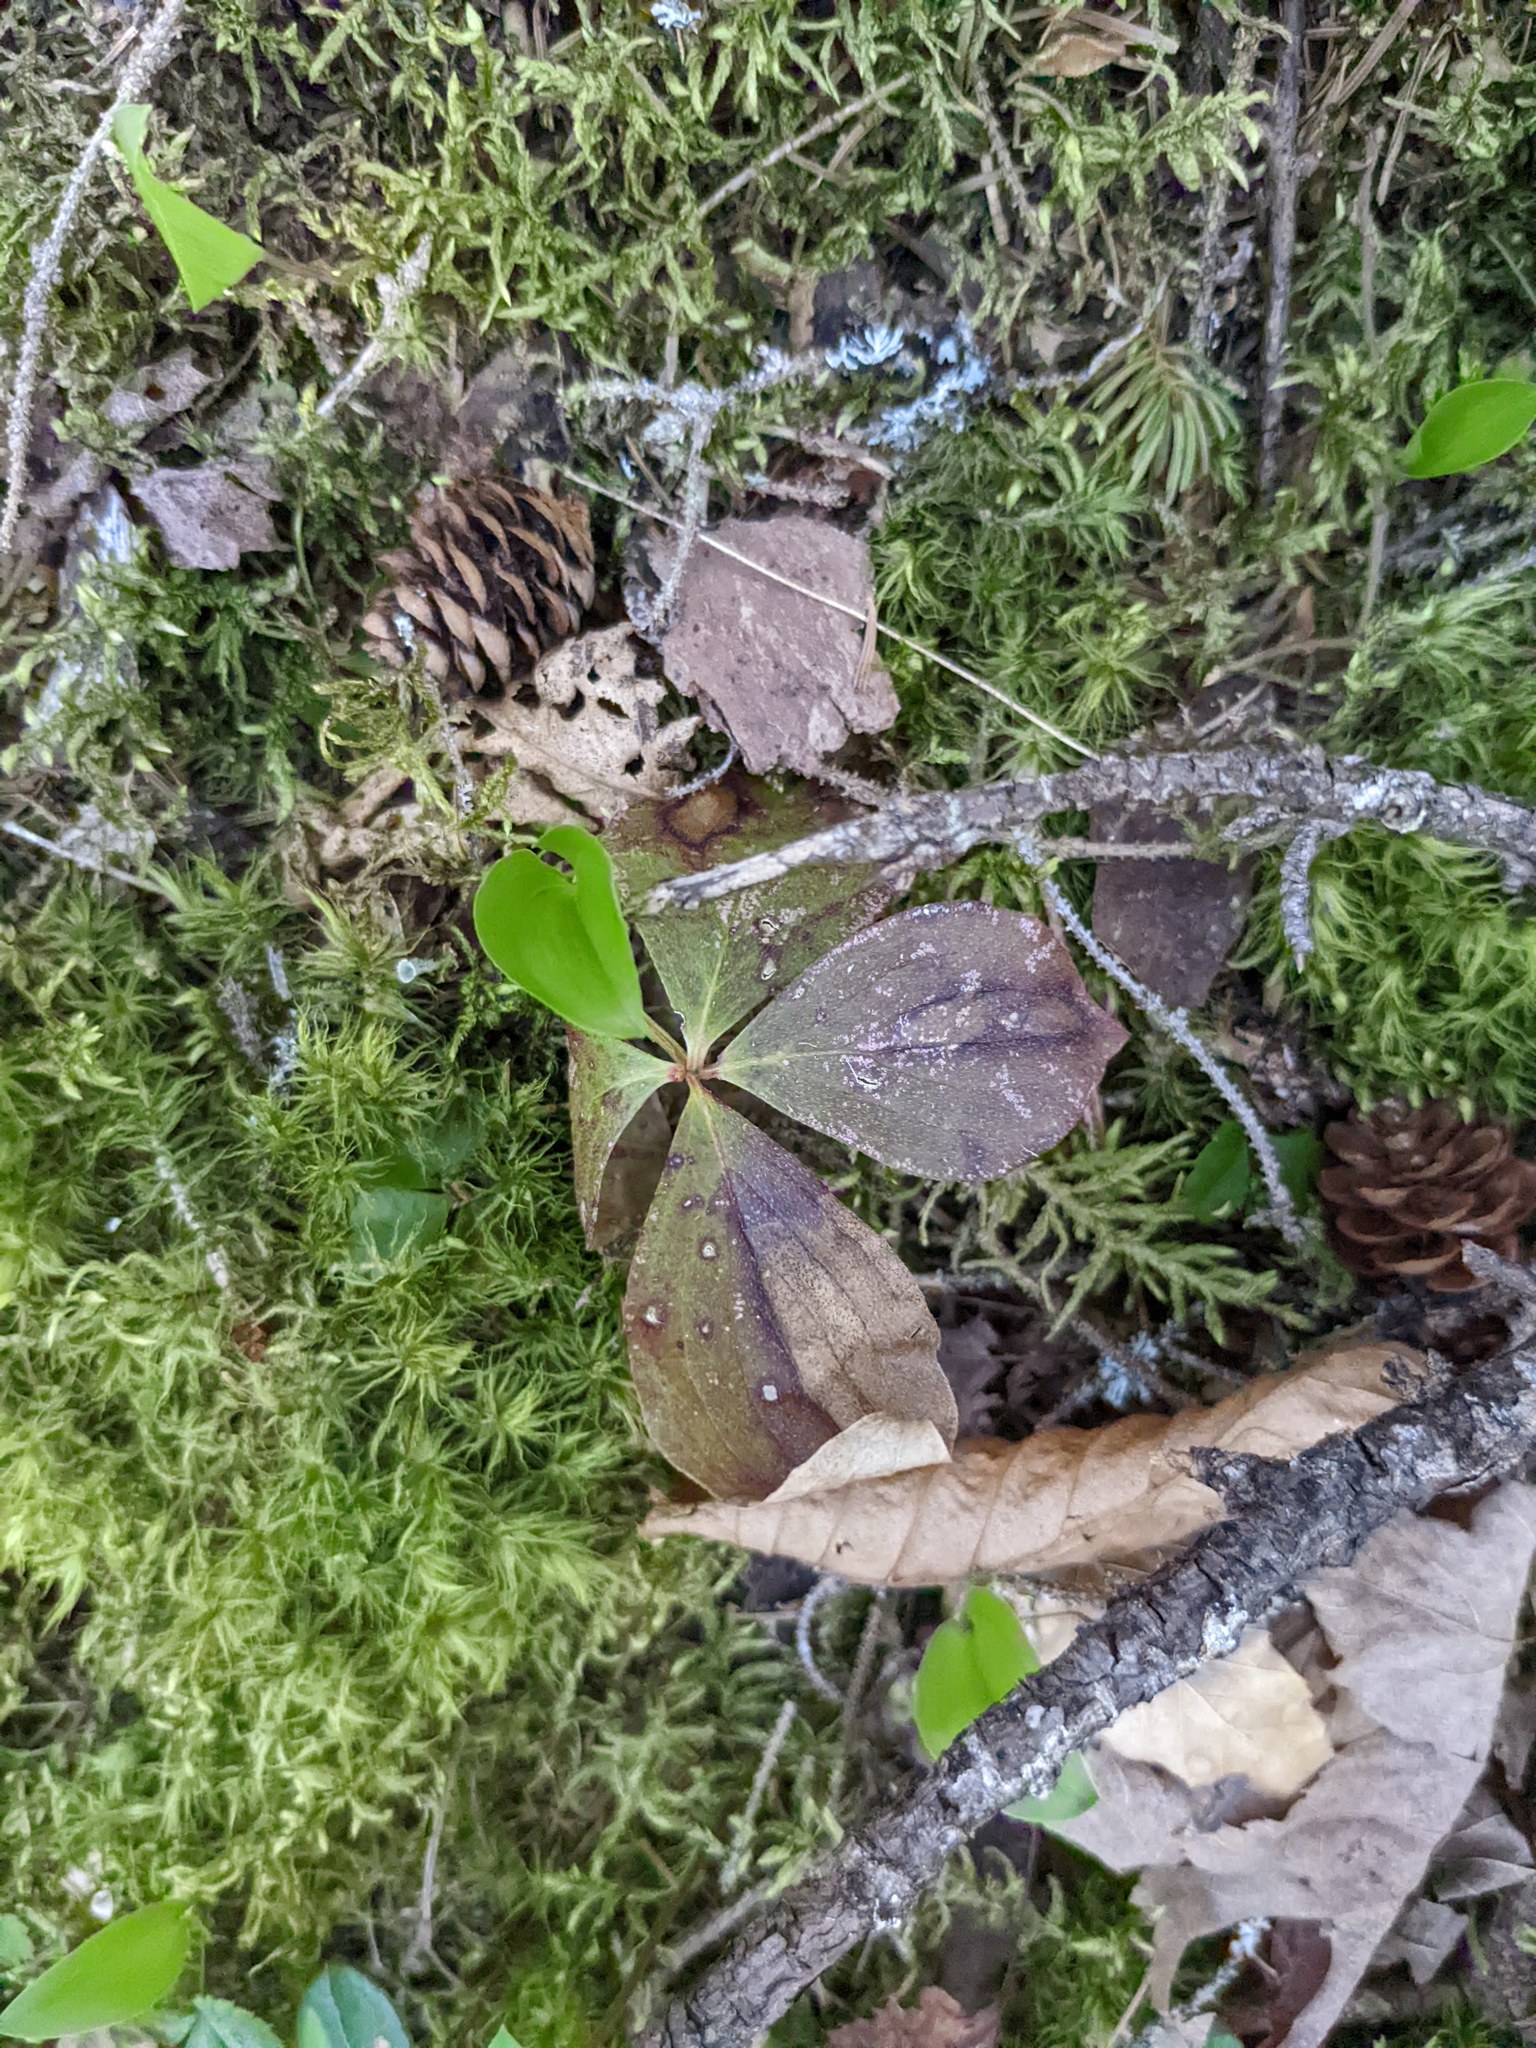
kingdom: Plantae
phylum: Tracheophyta
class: Magnoliopsida
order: Cornales
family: Cornaceae
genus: Cornus
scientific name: Cornus canadensis
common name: Creeping dogwood
